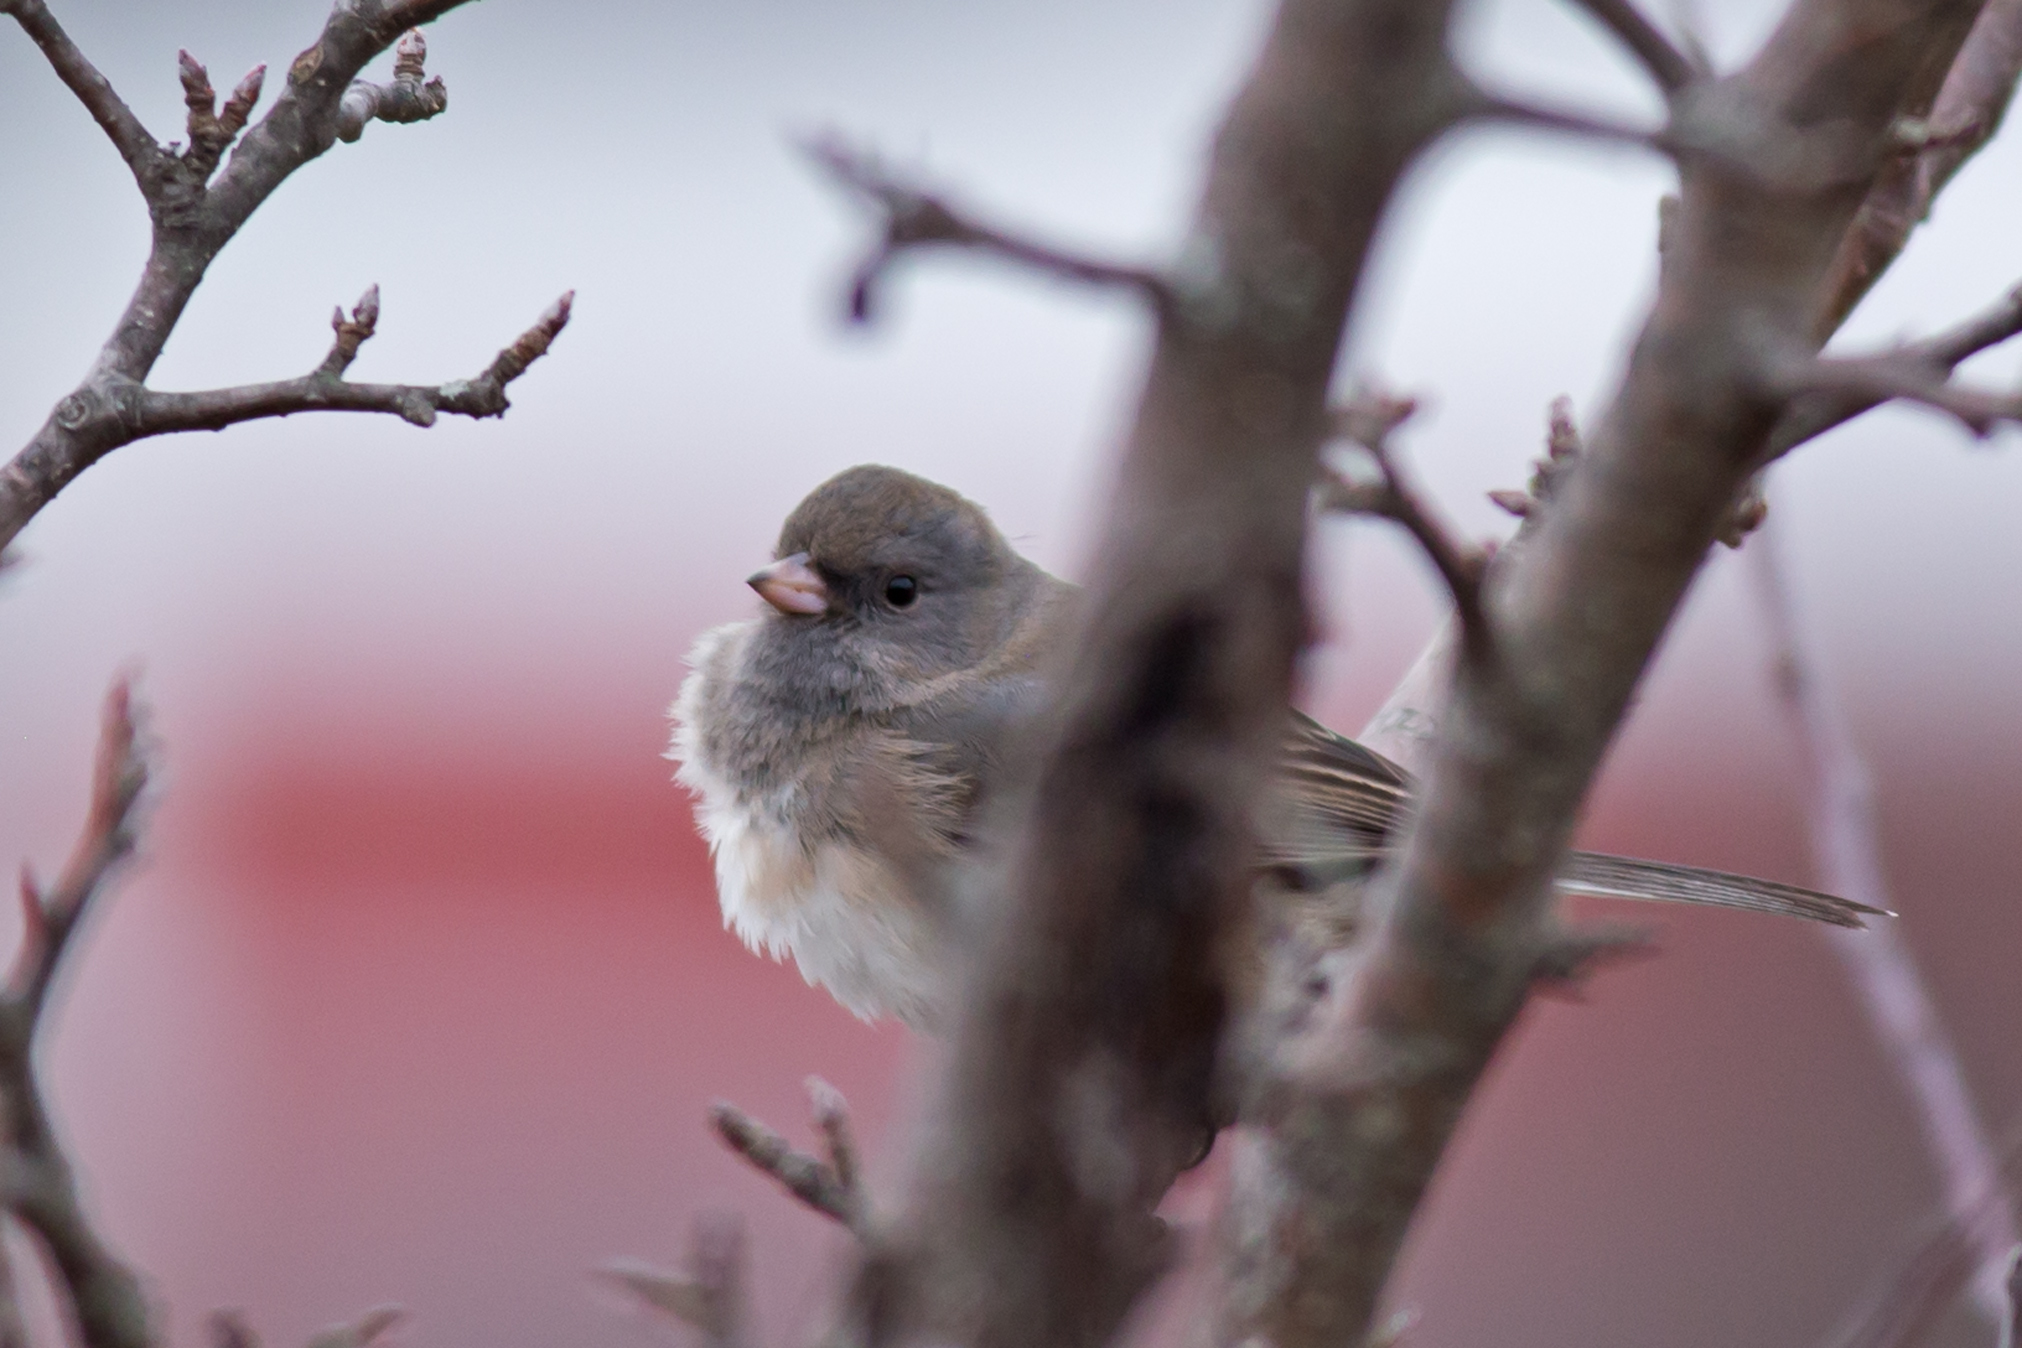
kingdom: Animalia
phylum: Chordata
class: Aves
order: Passeriformes
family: Passerellidae
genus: Junco
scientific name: Junco hyemalis
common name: Dark-eyed junco
